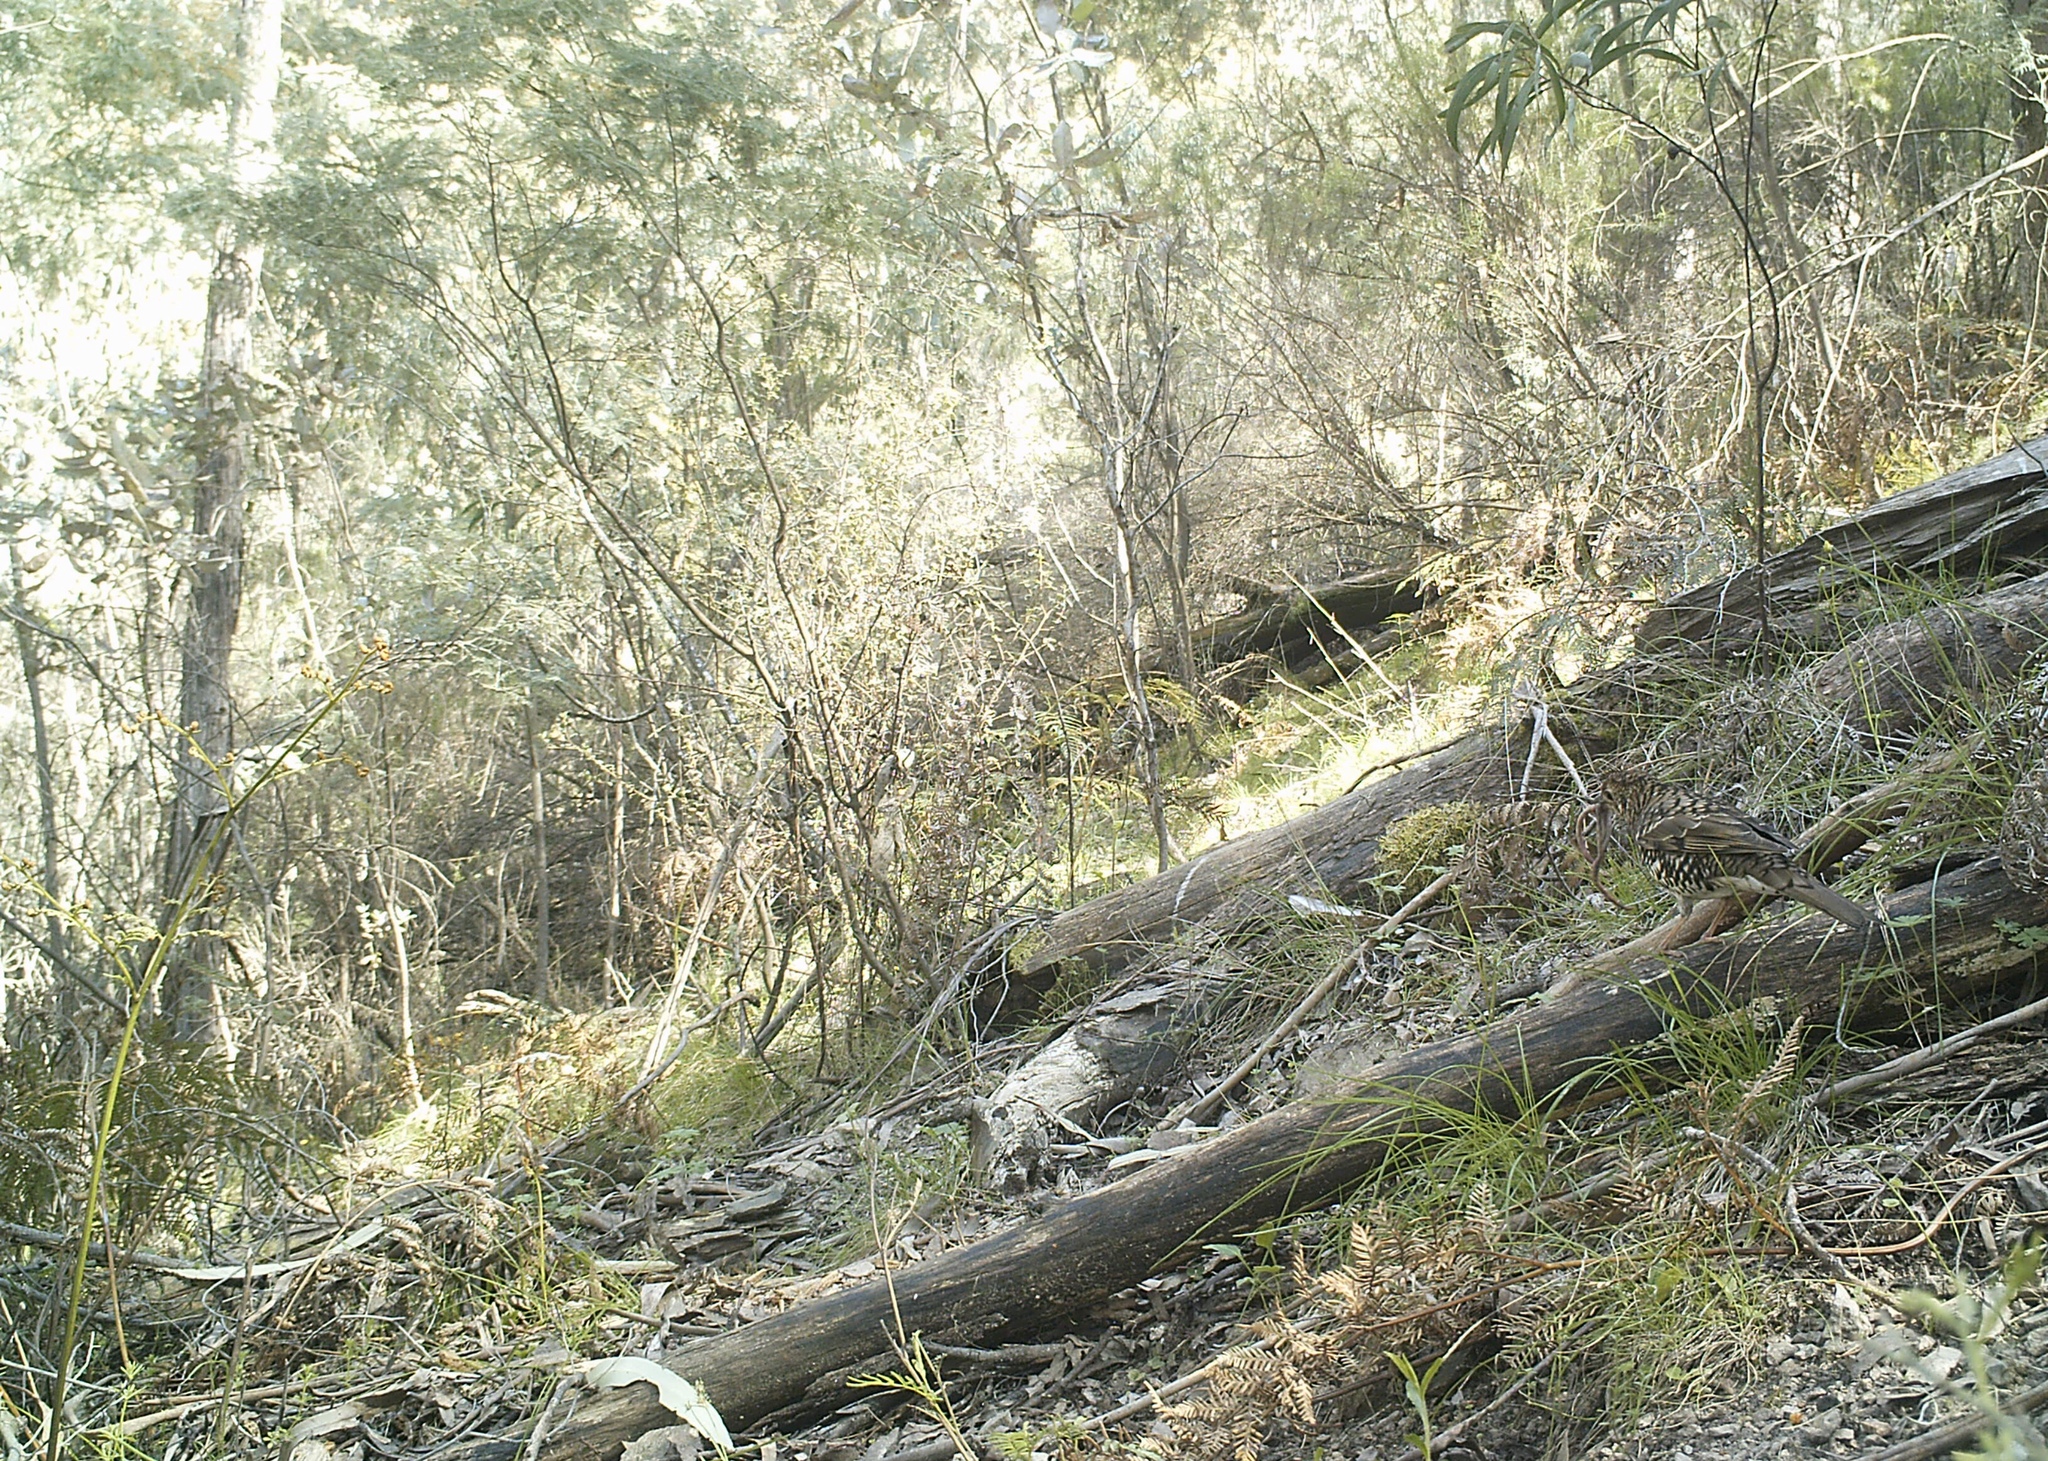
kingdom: Animalia
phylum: Chordata
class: Aves
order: Passeriformes
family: Turdidae
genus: Zoothera
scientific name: Zoothera lunulata
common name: Bassian thrush
